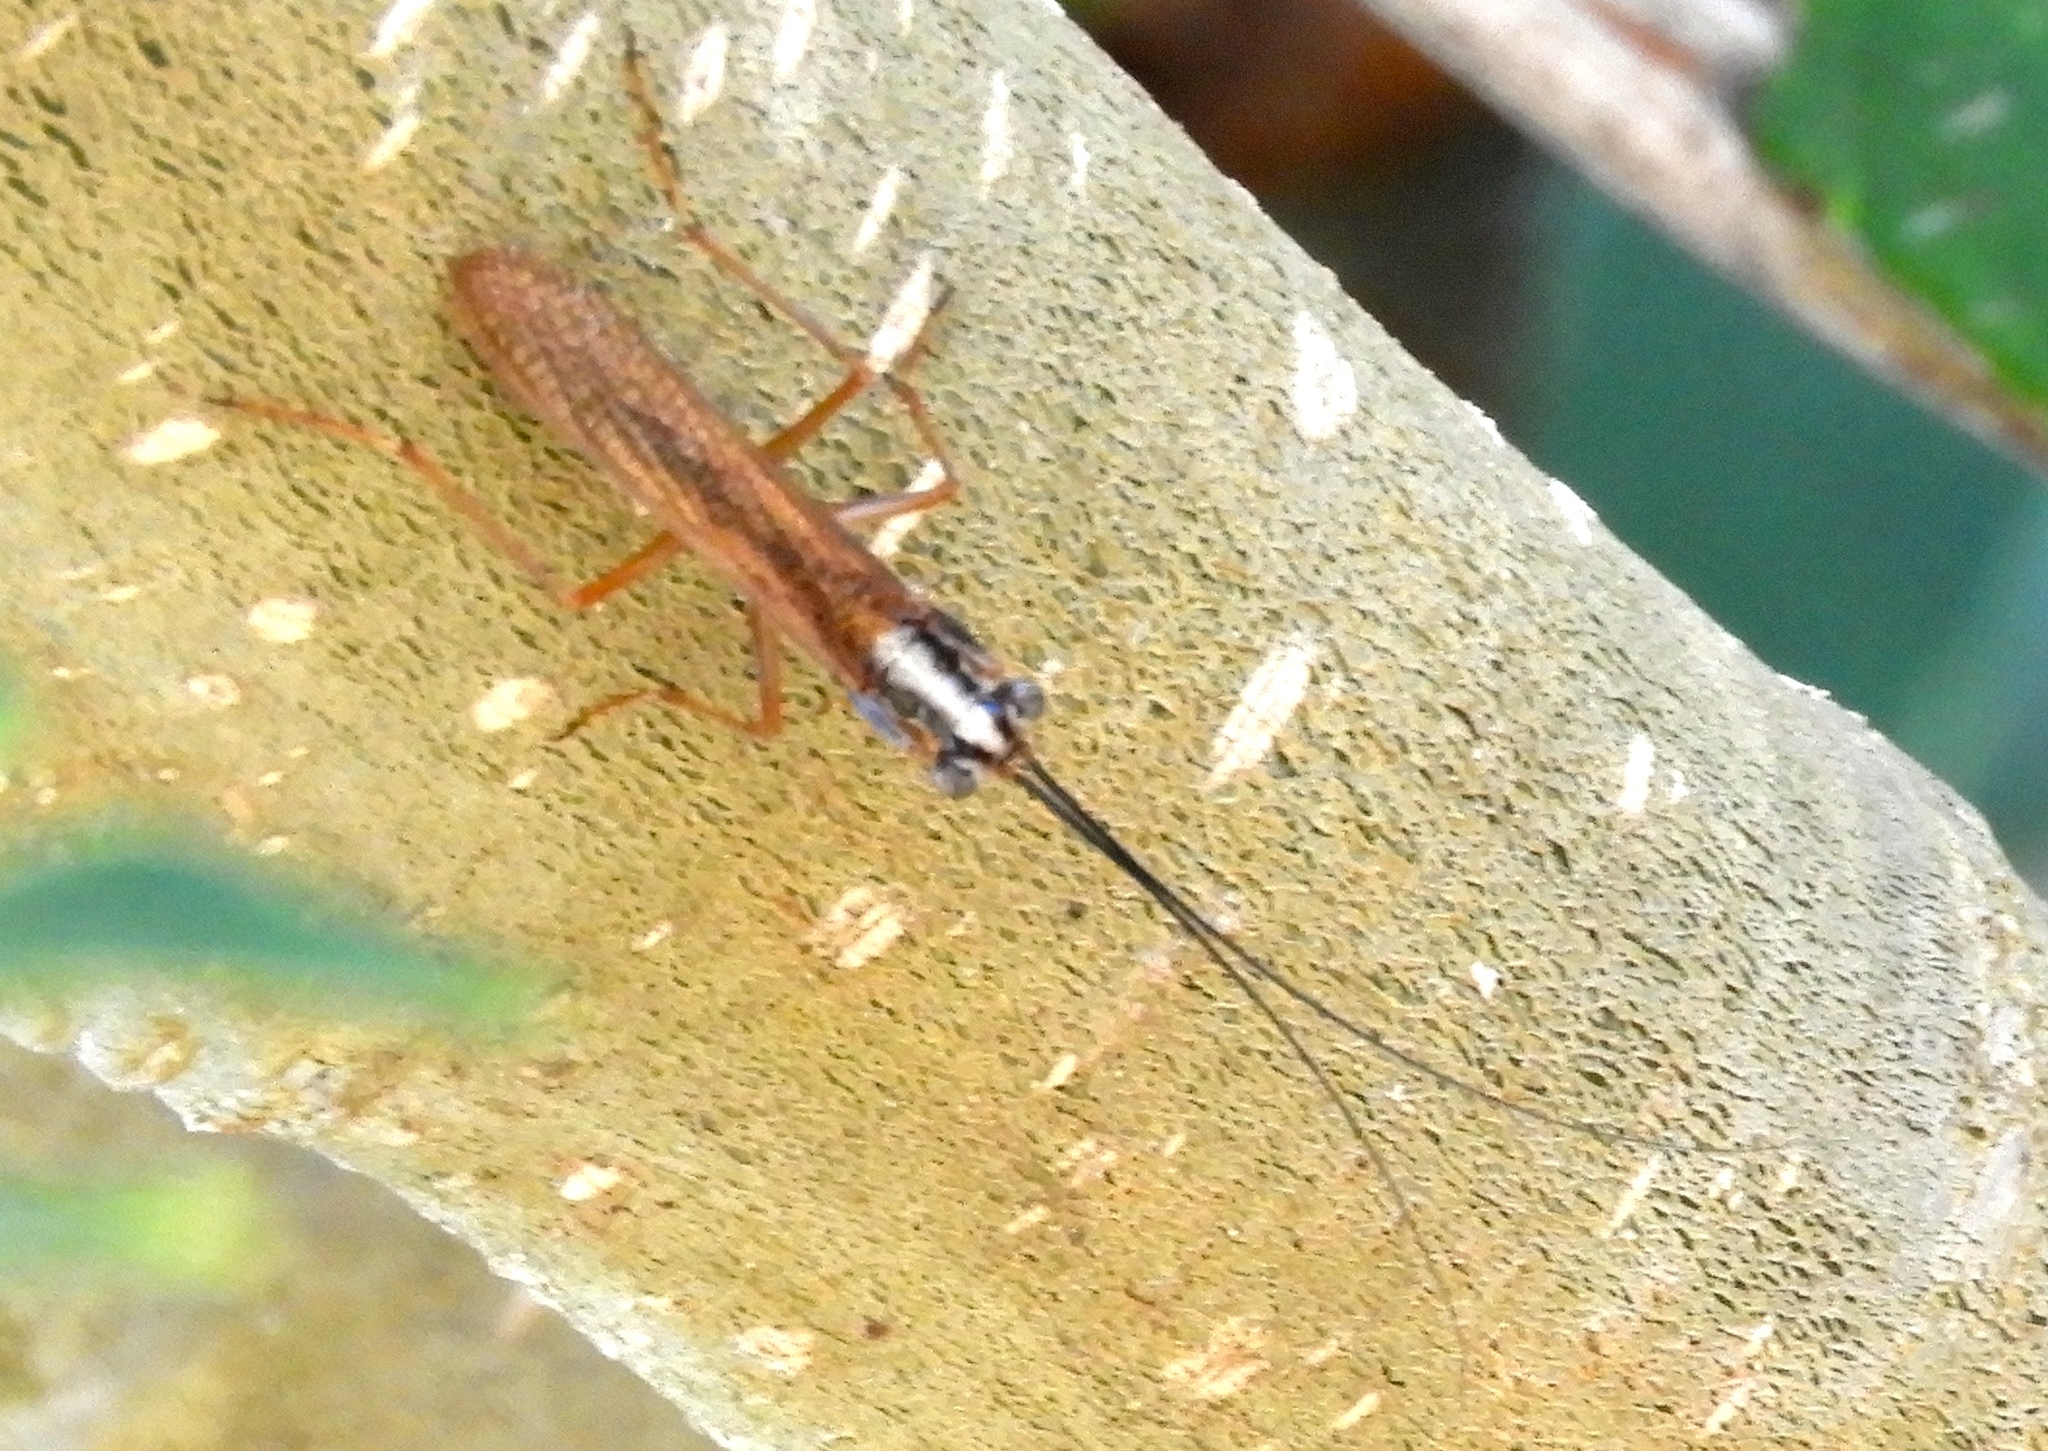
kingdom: Animalia
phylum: Arthropoda
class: Insecta
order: Mantodea
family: Mantoididae
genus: Mantoida
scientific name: Mantoida maya
